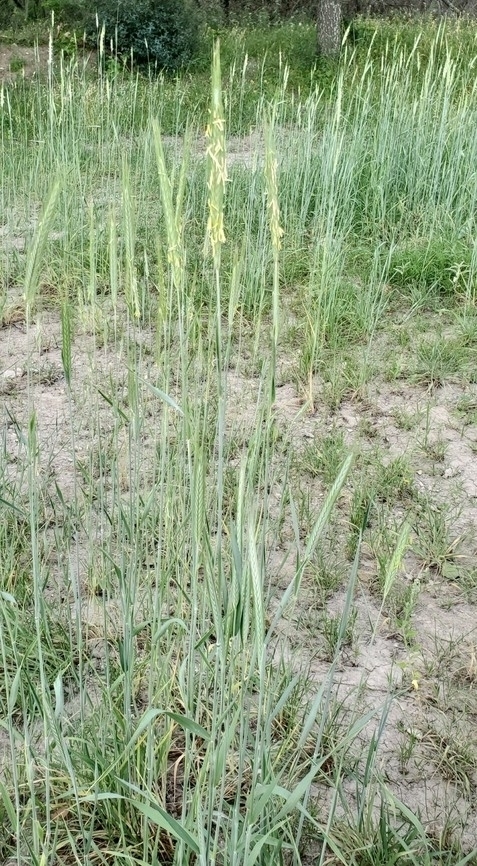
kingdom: Plantae
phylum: Tracheophyta
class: Liliopsida
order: Poales
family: Poaceae
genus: Secale
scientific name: Secale cereale
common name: Rye
